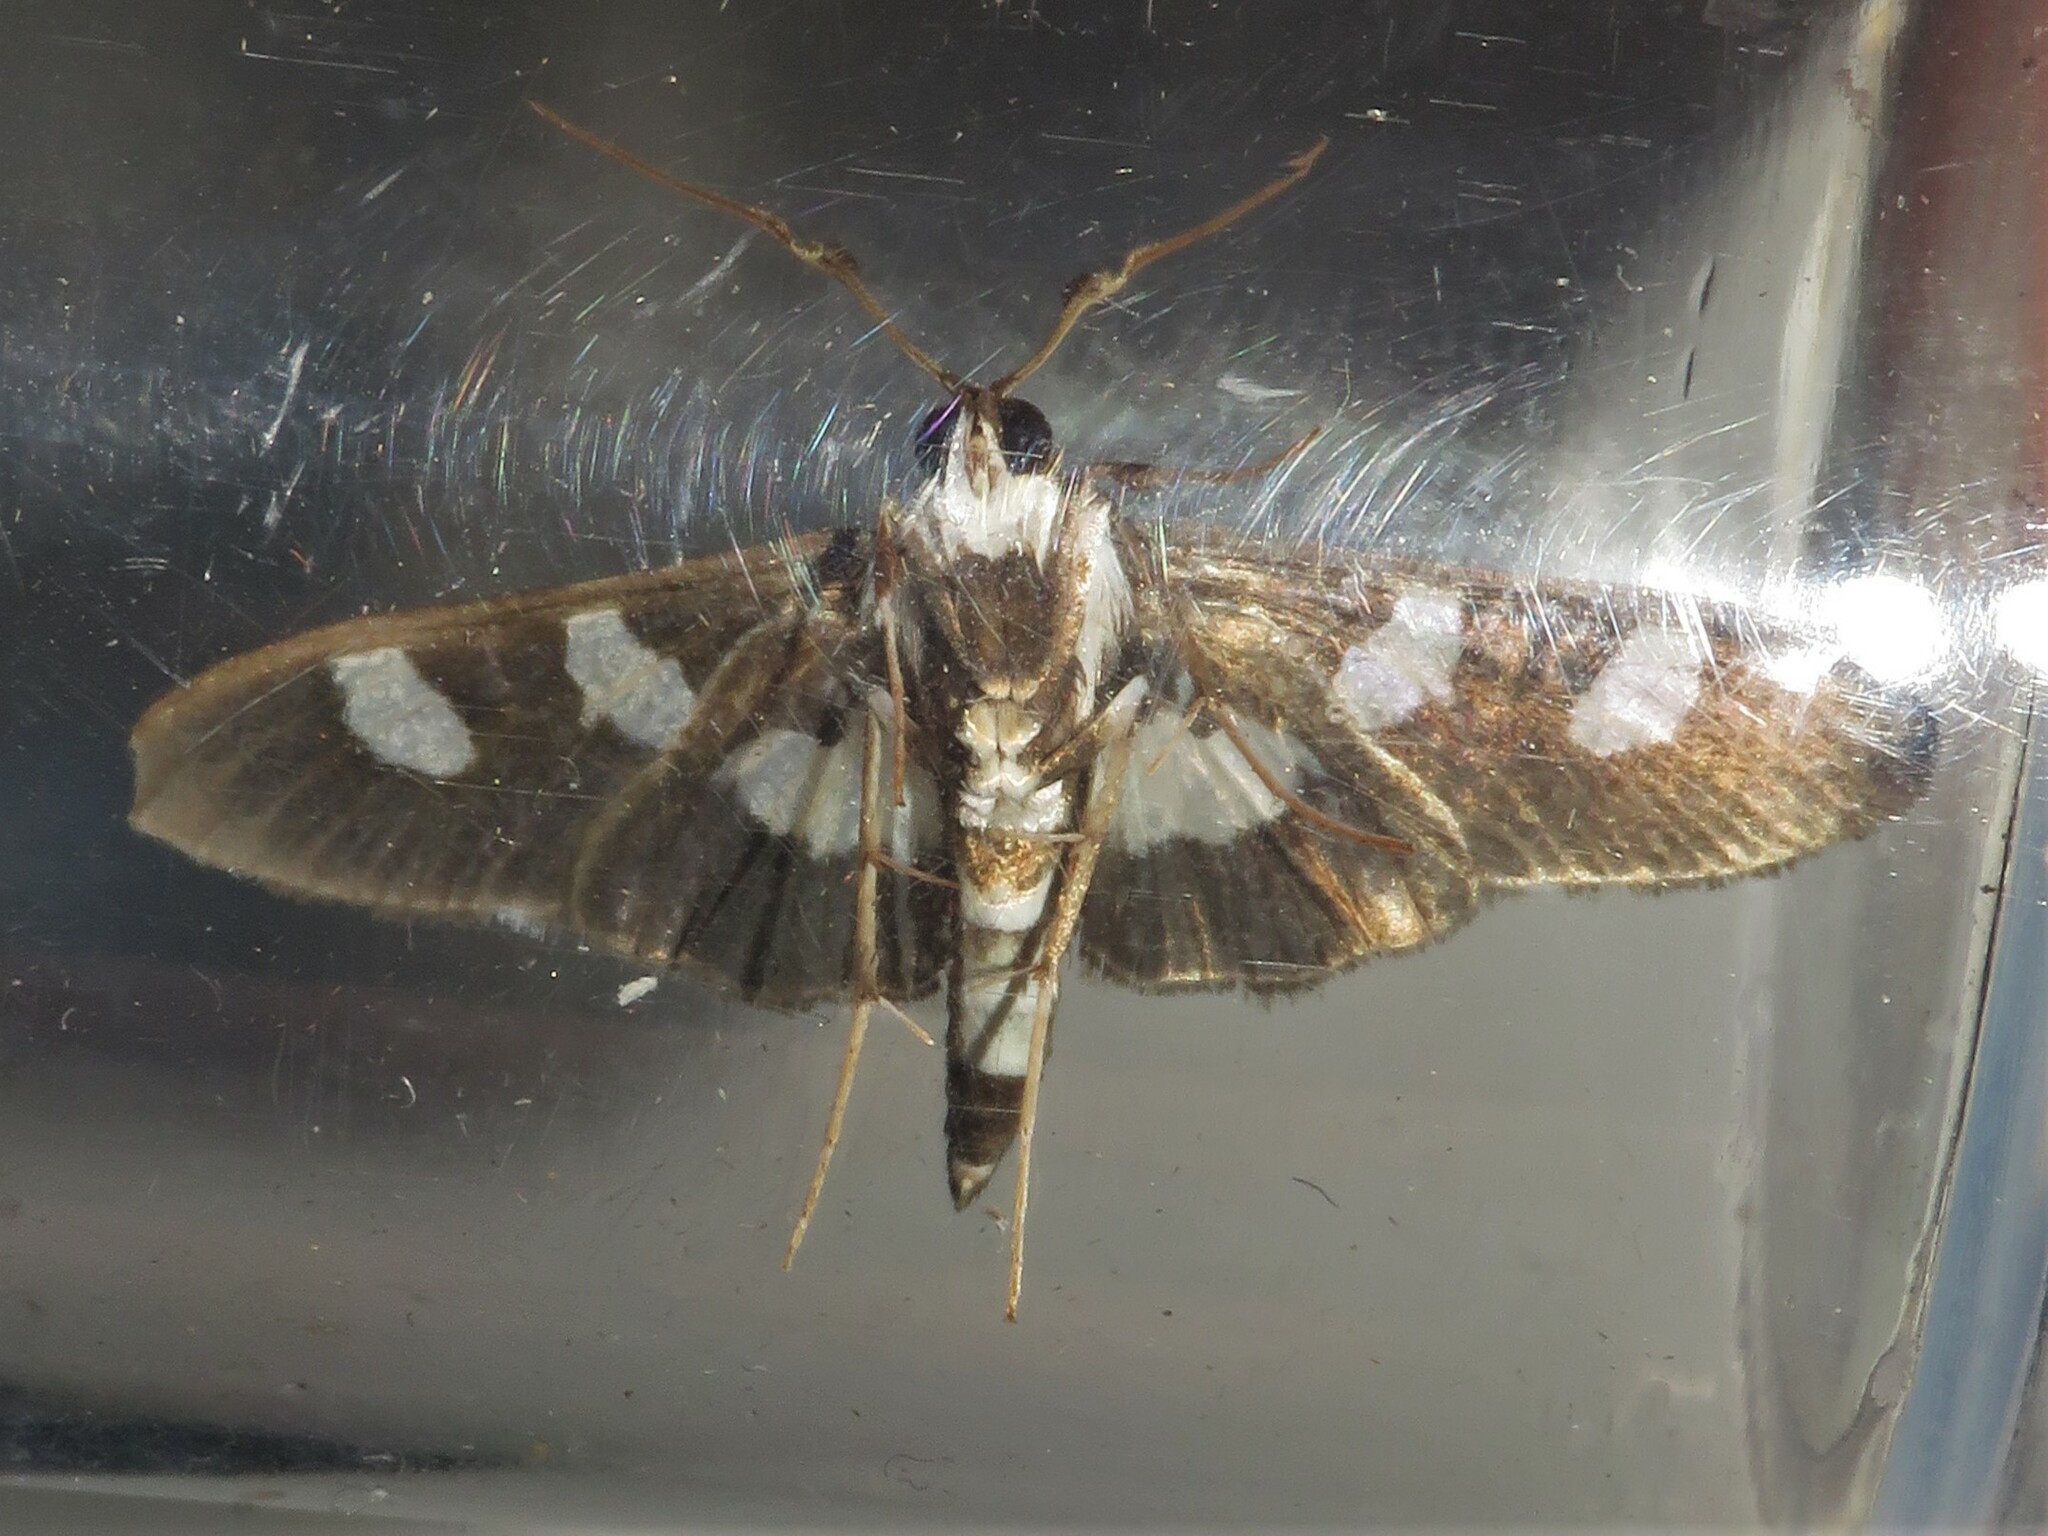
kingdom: Animalia
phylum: Arthropoda
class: Insecta
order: Lepidoptera
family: Crambidae
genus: Desmia
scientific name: Desmia funeralis
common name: Grape leaf folder moth
